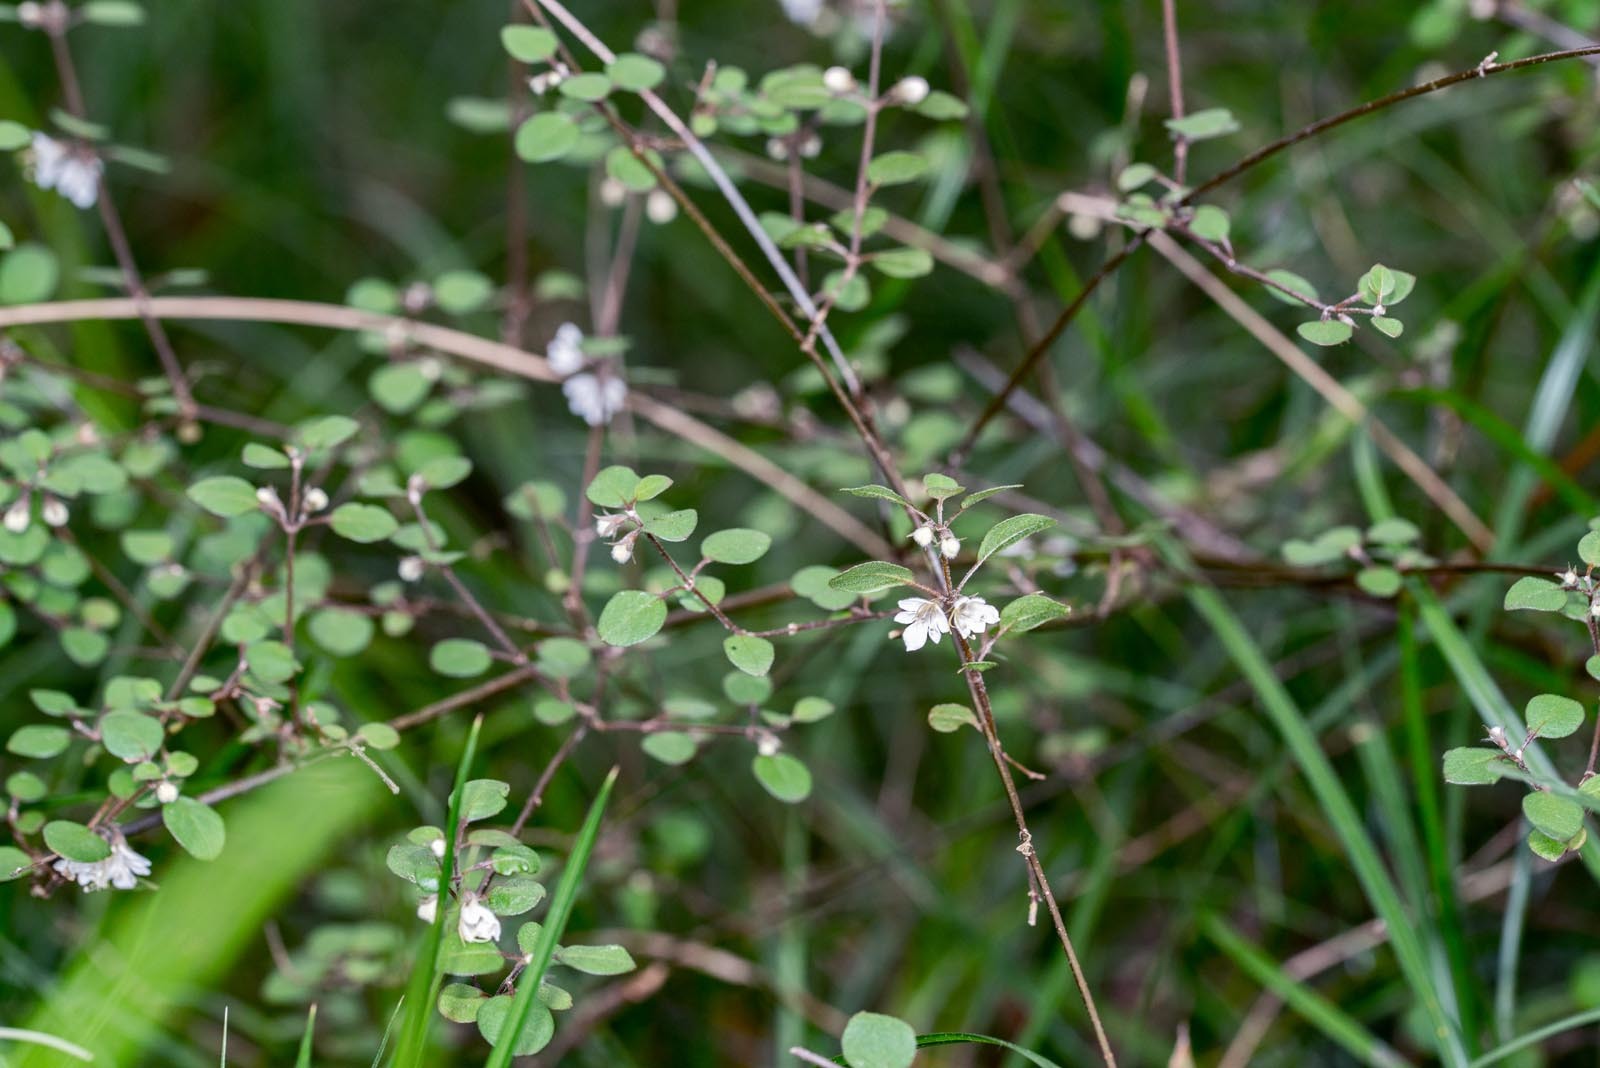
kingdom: Plantae
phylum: Tracheophyta
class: Magnoliopsida
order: Lamiales
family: Lamiaceae
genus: Teucrium
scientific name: Teucrium parvifolium
